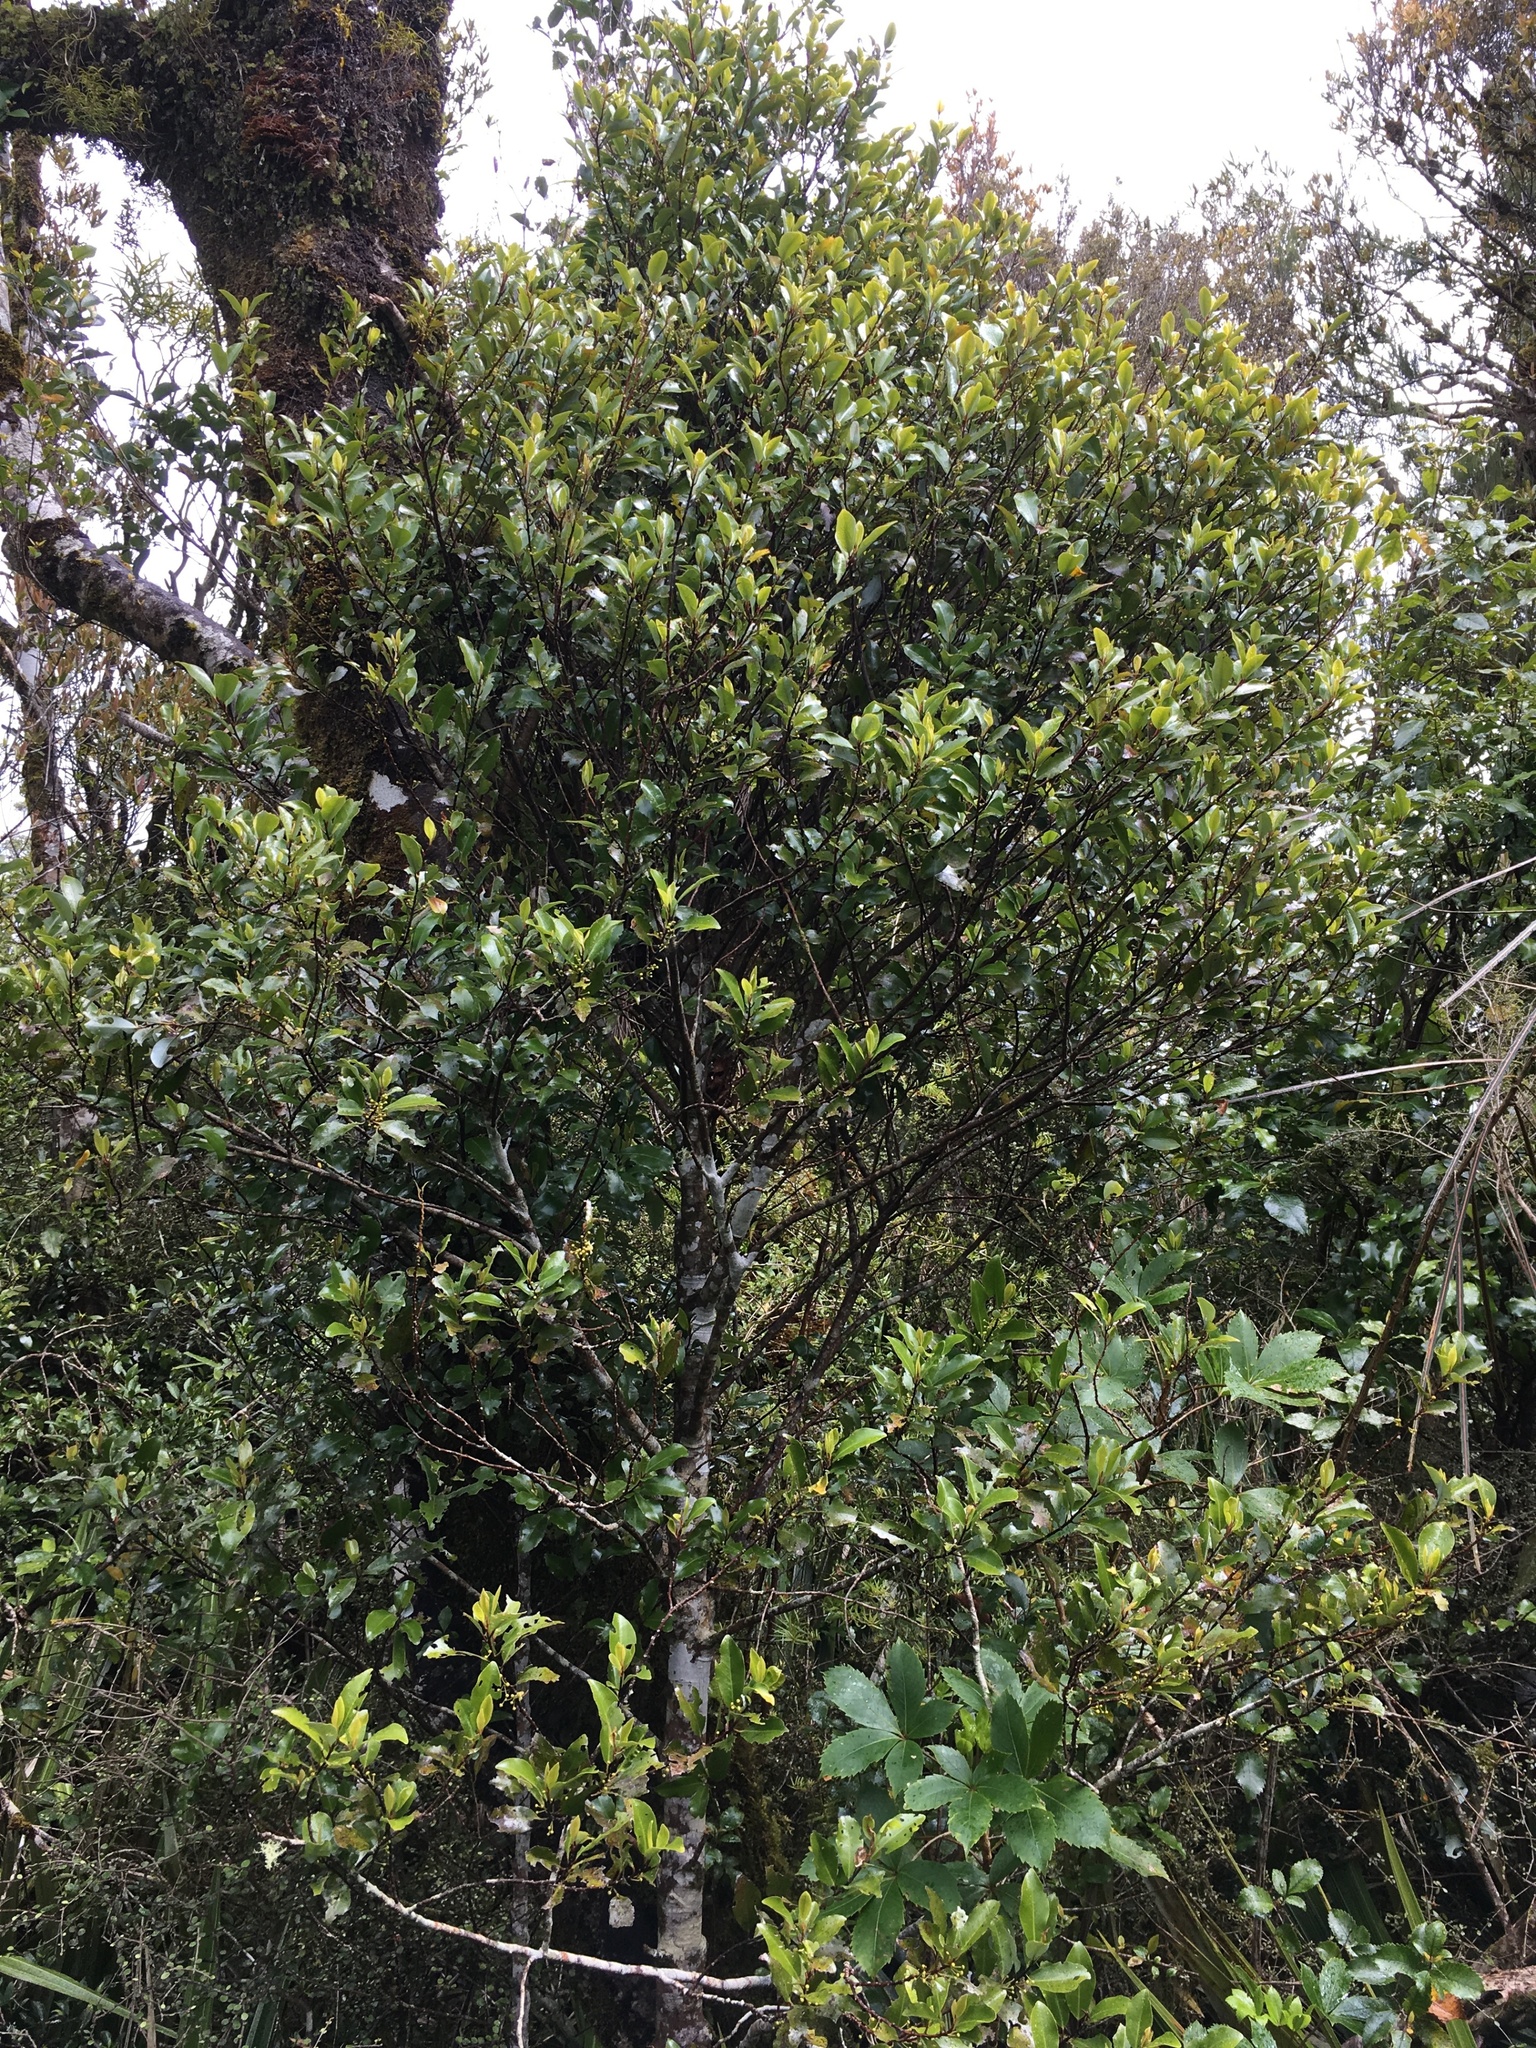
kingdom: Plantae
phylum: Tracheophyta
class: Magnoliopsida
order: Canellales
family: Winteraceae
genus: Pseudowintera
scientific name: Pseudowintera axillaris
